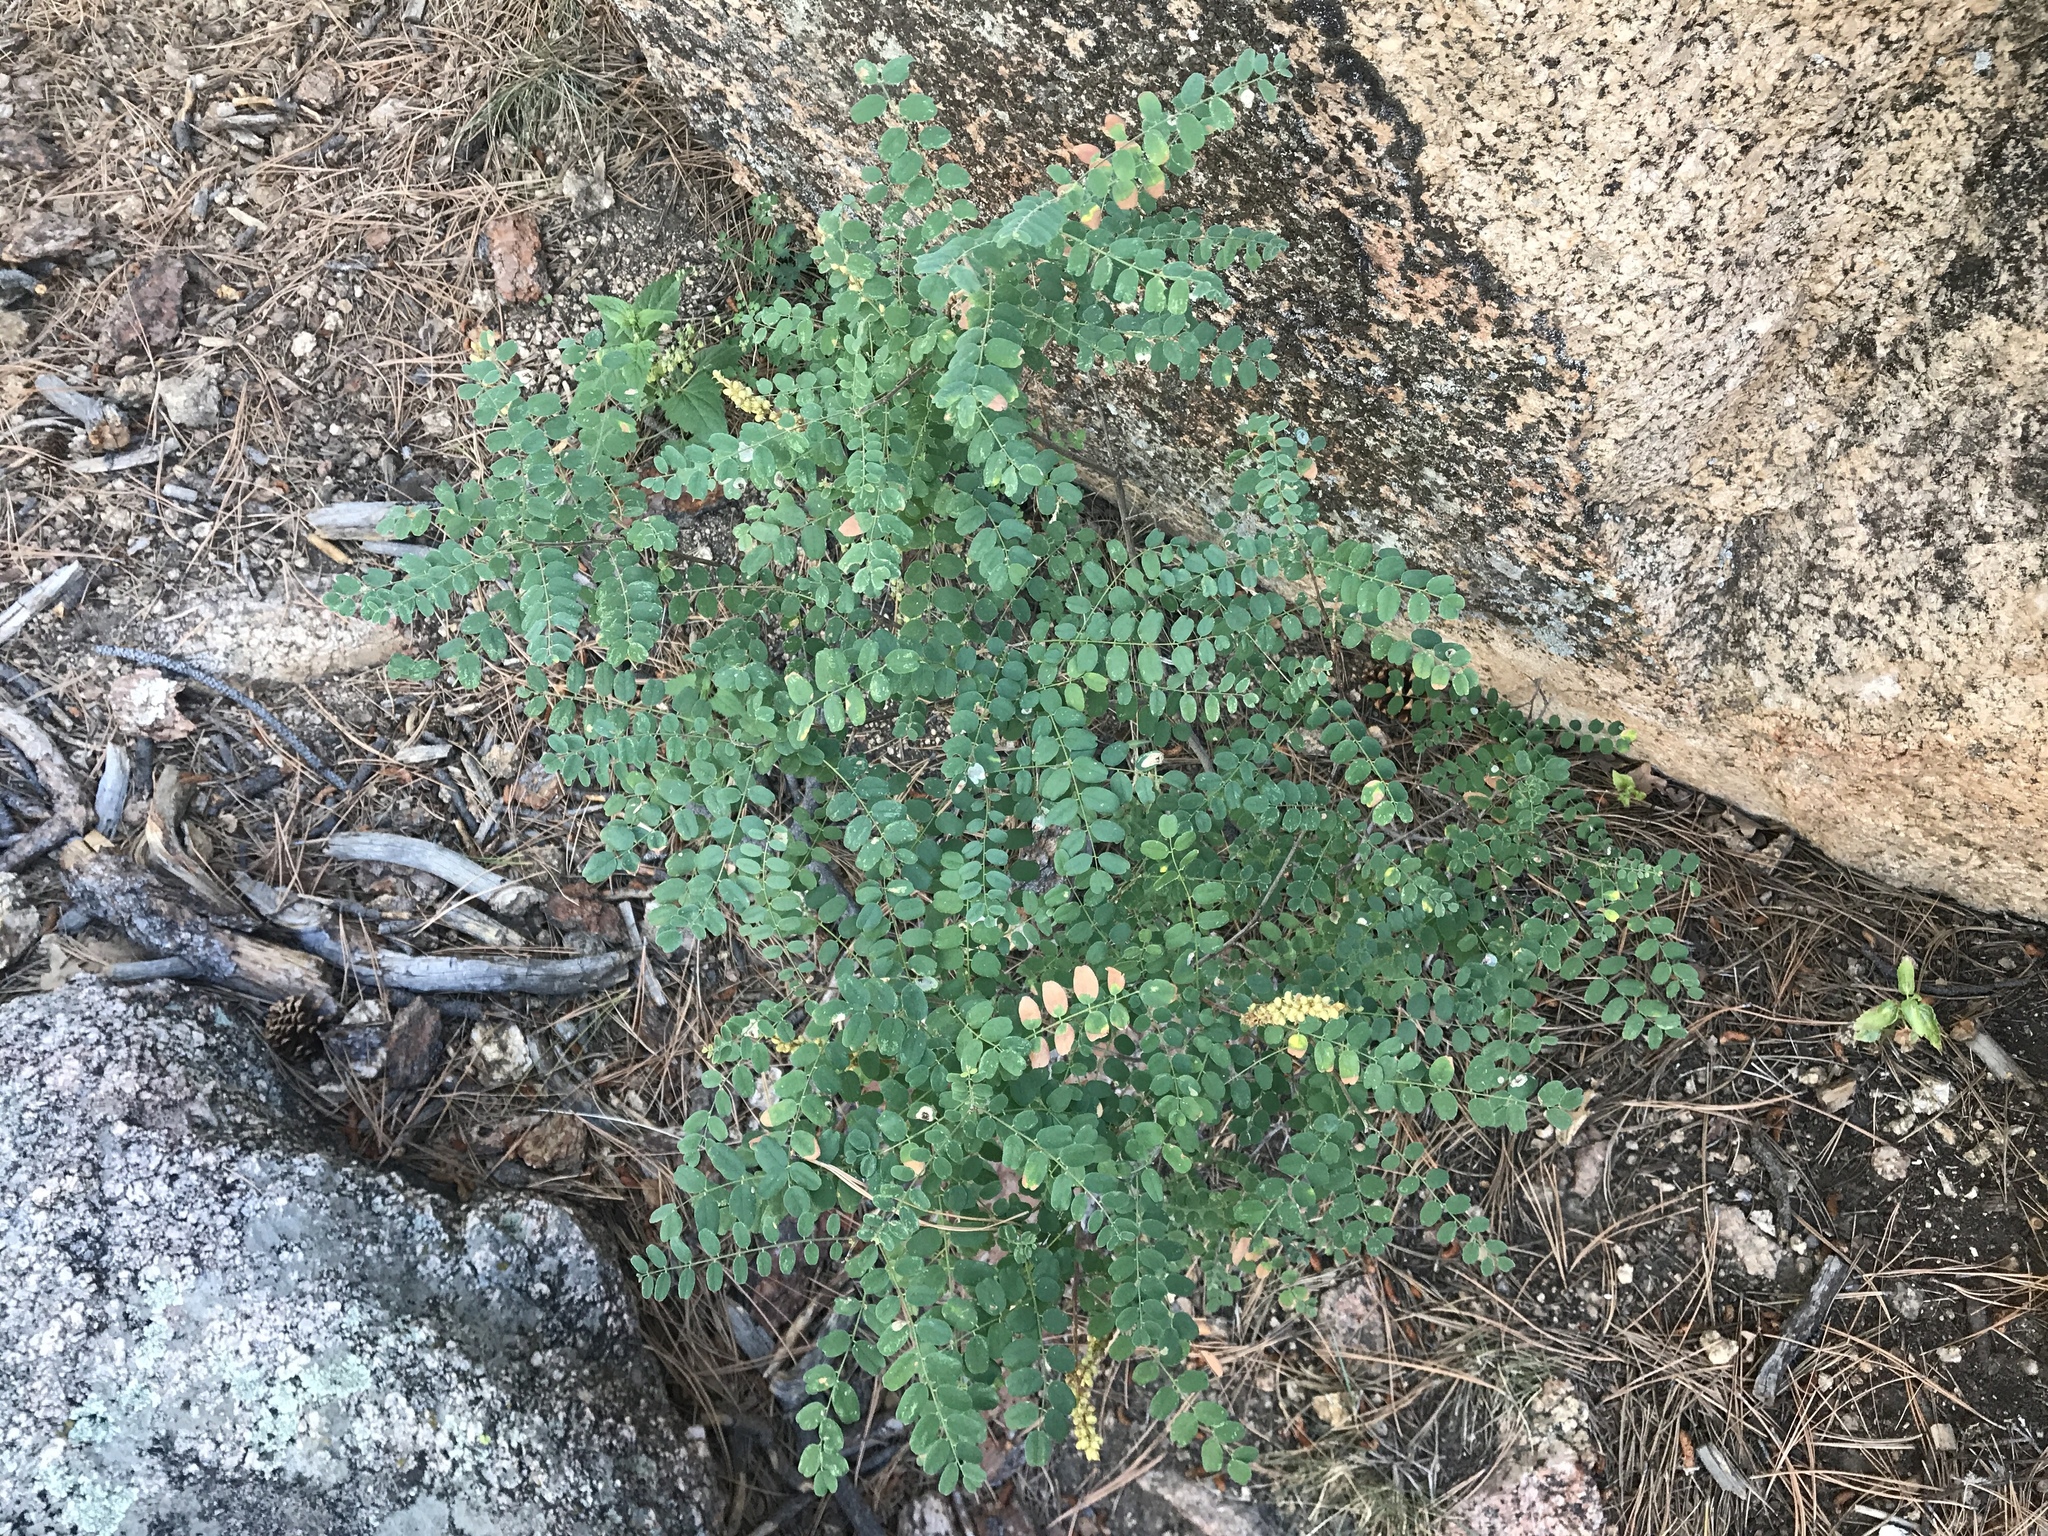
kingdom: Plantae
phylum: Tracheophyta
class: Magnoliopsida
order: Fabales
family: Fabaceae
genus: Robinia
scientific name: Robinia neomexicana
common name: New mexico locust
